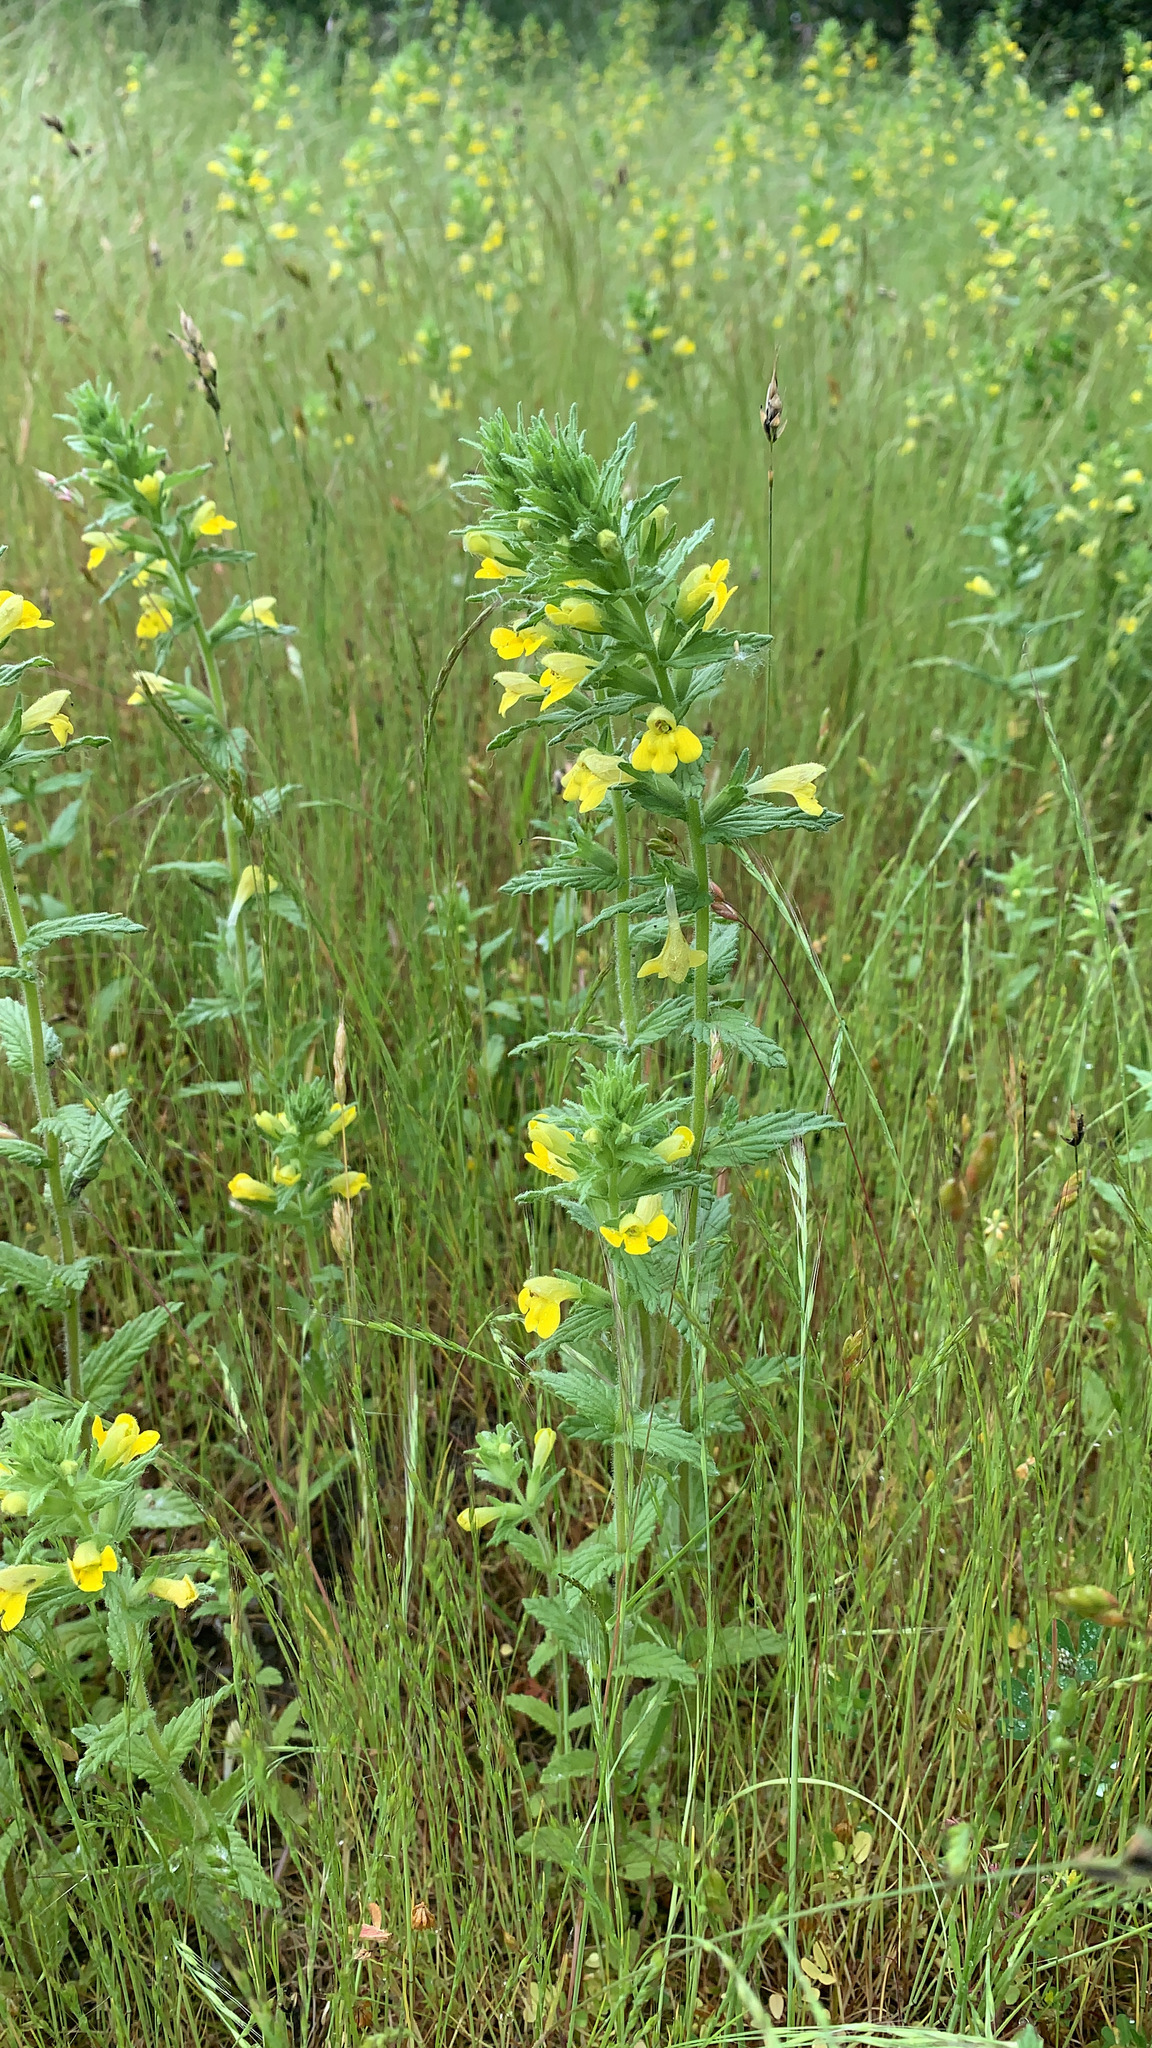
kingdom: Plantae
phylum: Tracheophyta
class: Magnoliopsida
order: Lamiales
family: Orobanchaceae
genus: Bellardia
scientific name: Bellardia viscosa
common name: Sticky parentucellia
